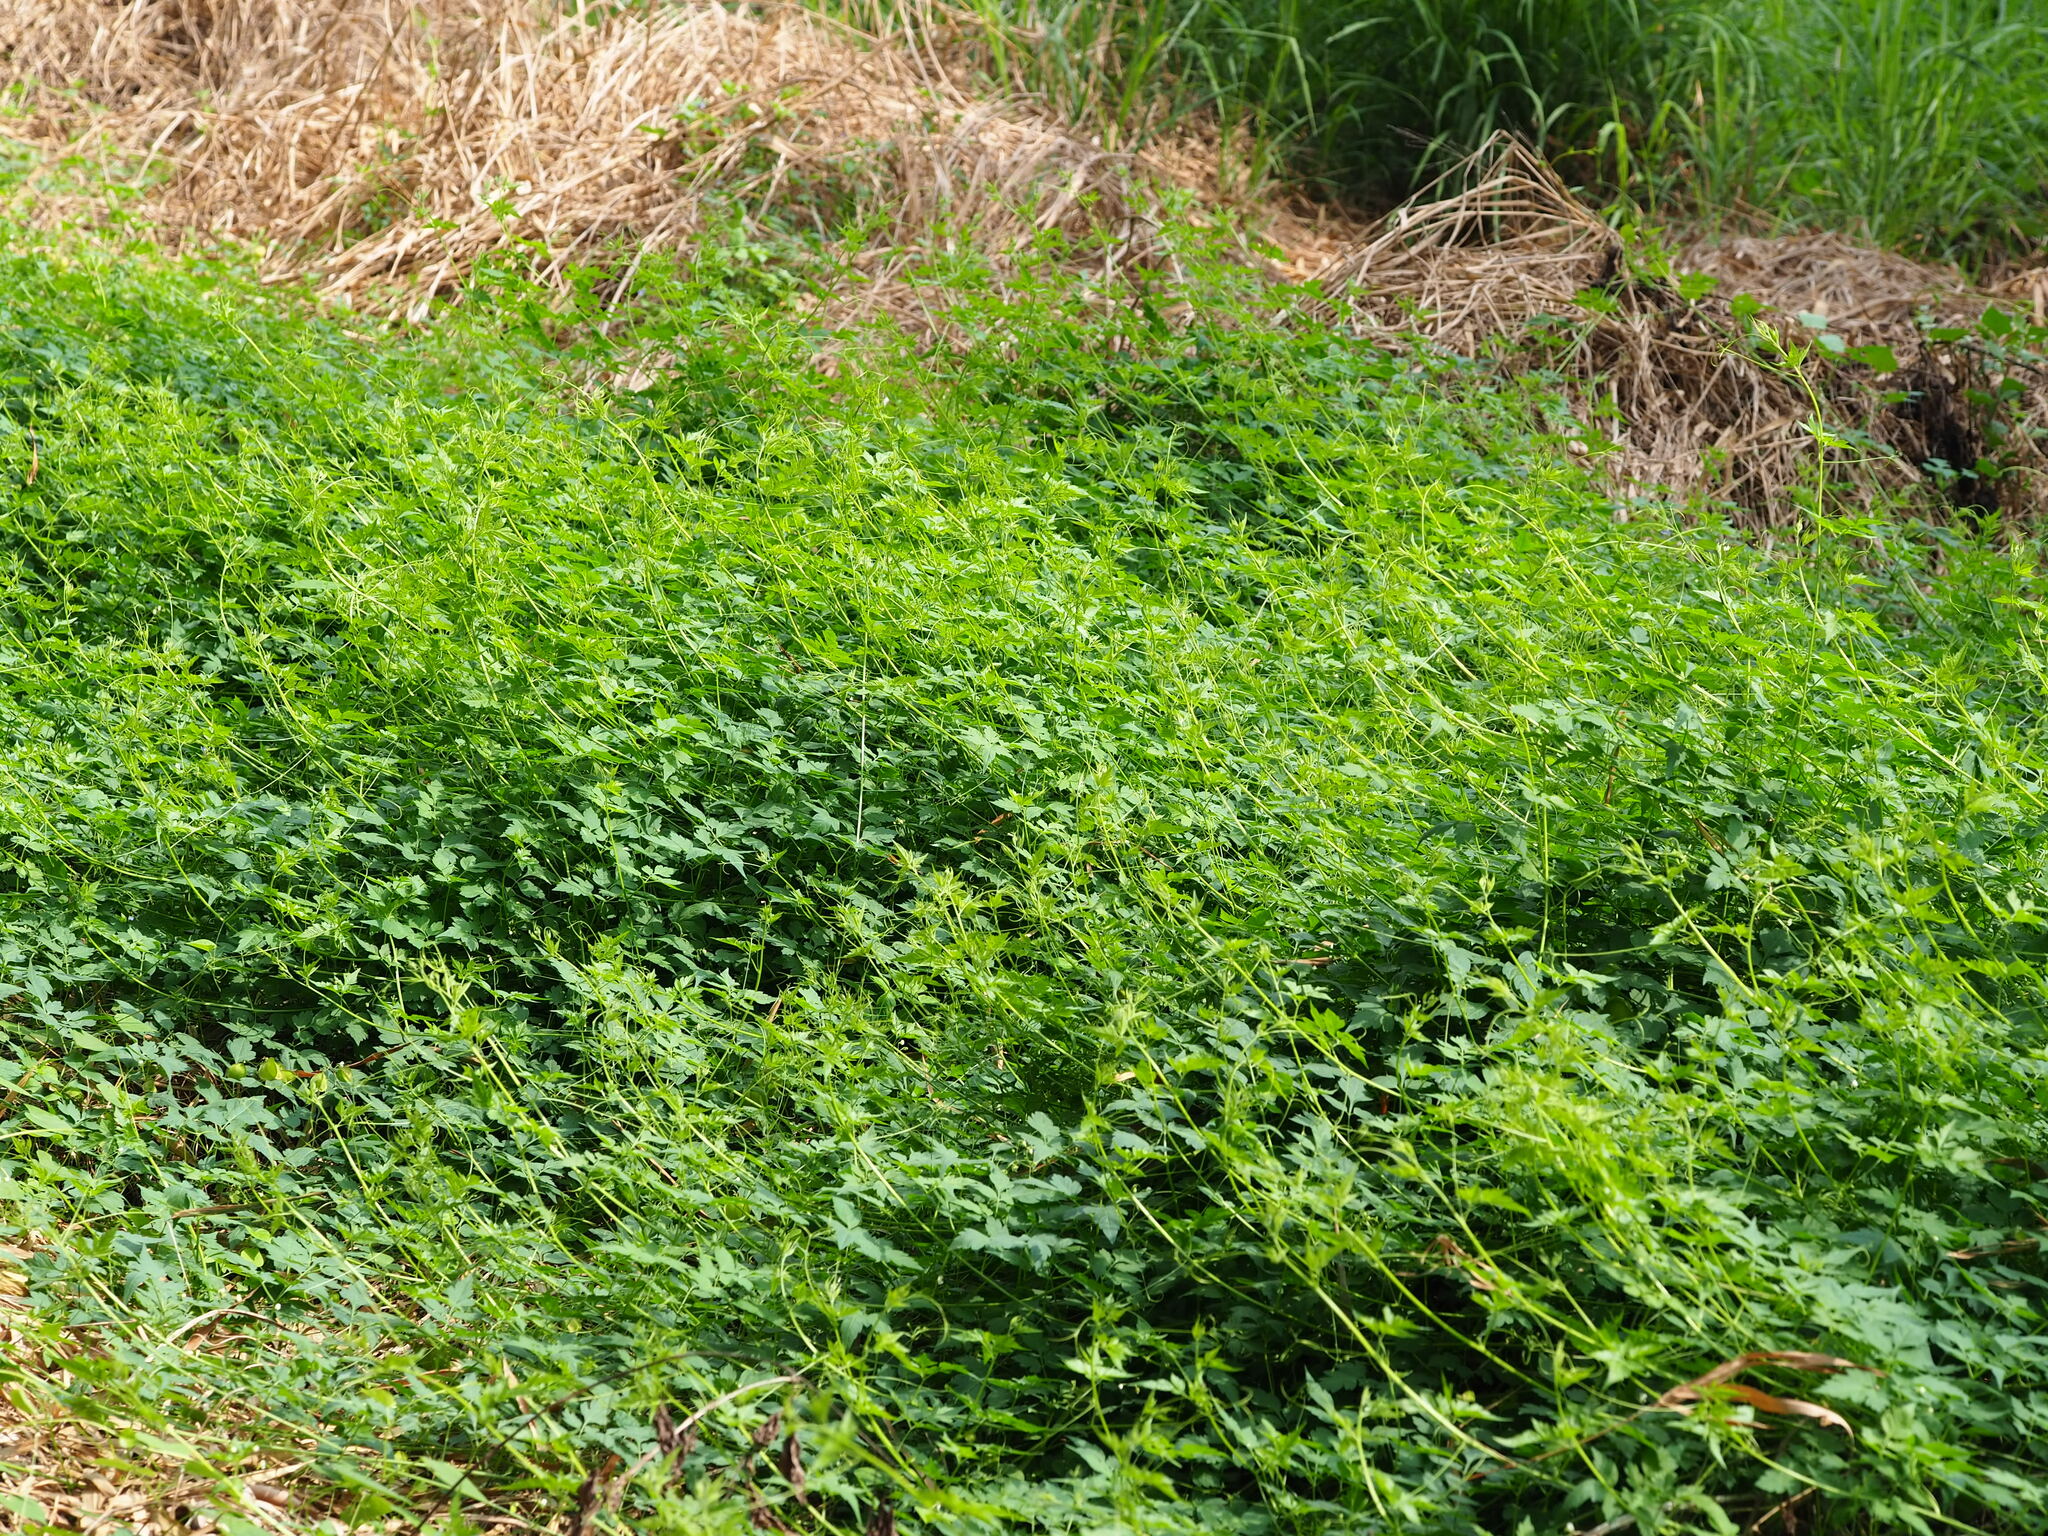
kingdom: Plantae
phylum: Tracheophyta
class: Magnoliopsida
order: Sapindales
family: Sapindaceae
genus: Cardiospermum
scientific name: Cardiospermum halicacabum
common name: Balloon vine
